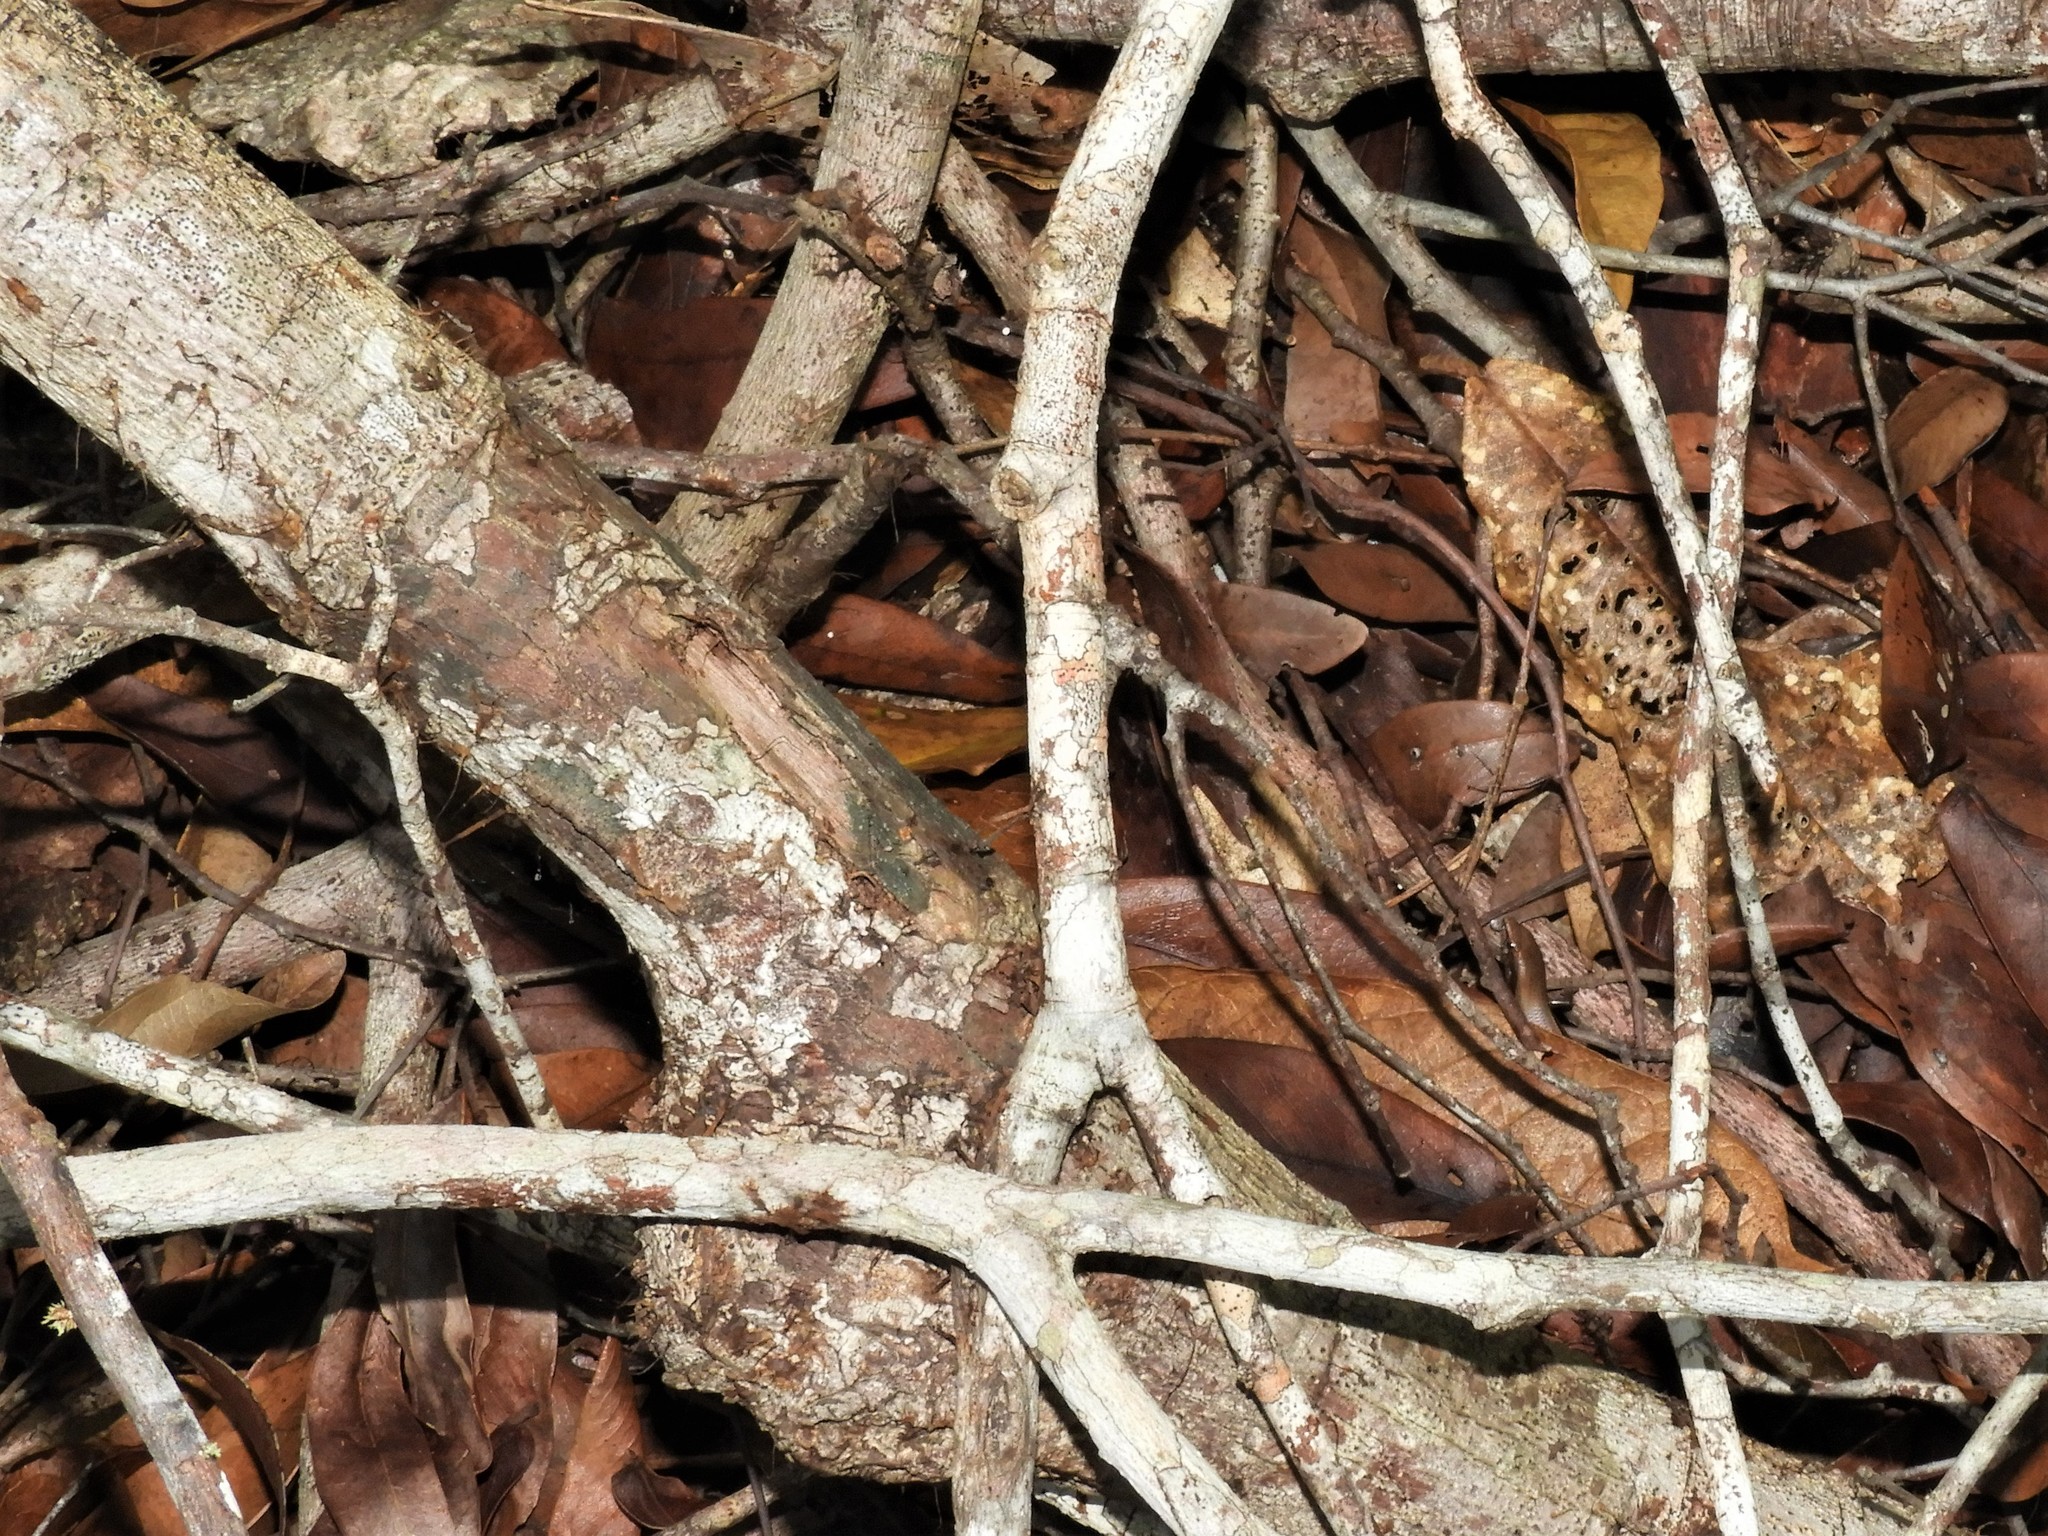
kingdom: Animalia
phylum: Chordata
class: Squamata
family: Scincidae
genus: Panaspis
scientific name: Panaspis wahlbergii
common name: Angolan snake-eyed skink
